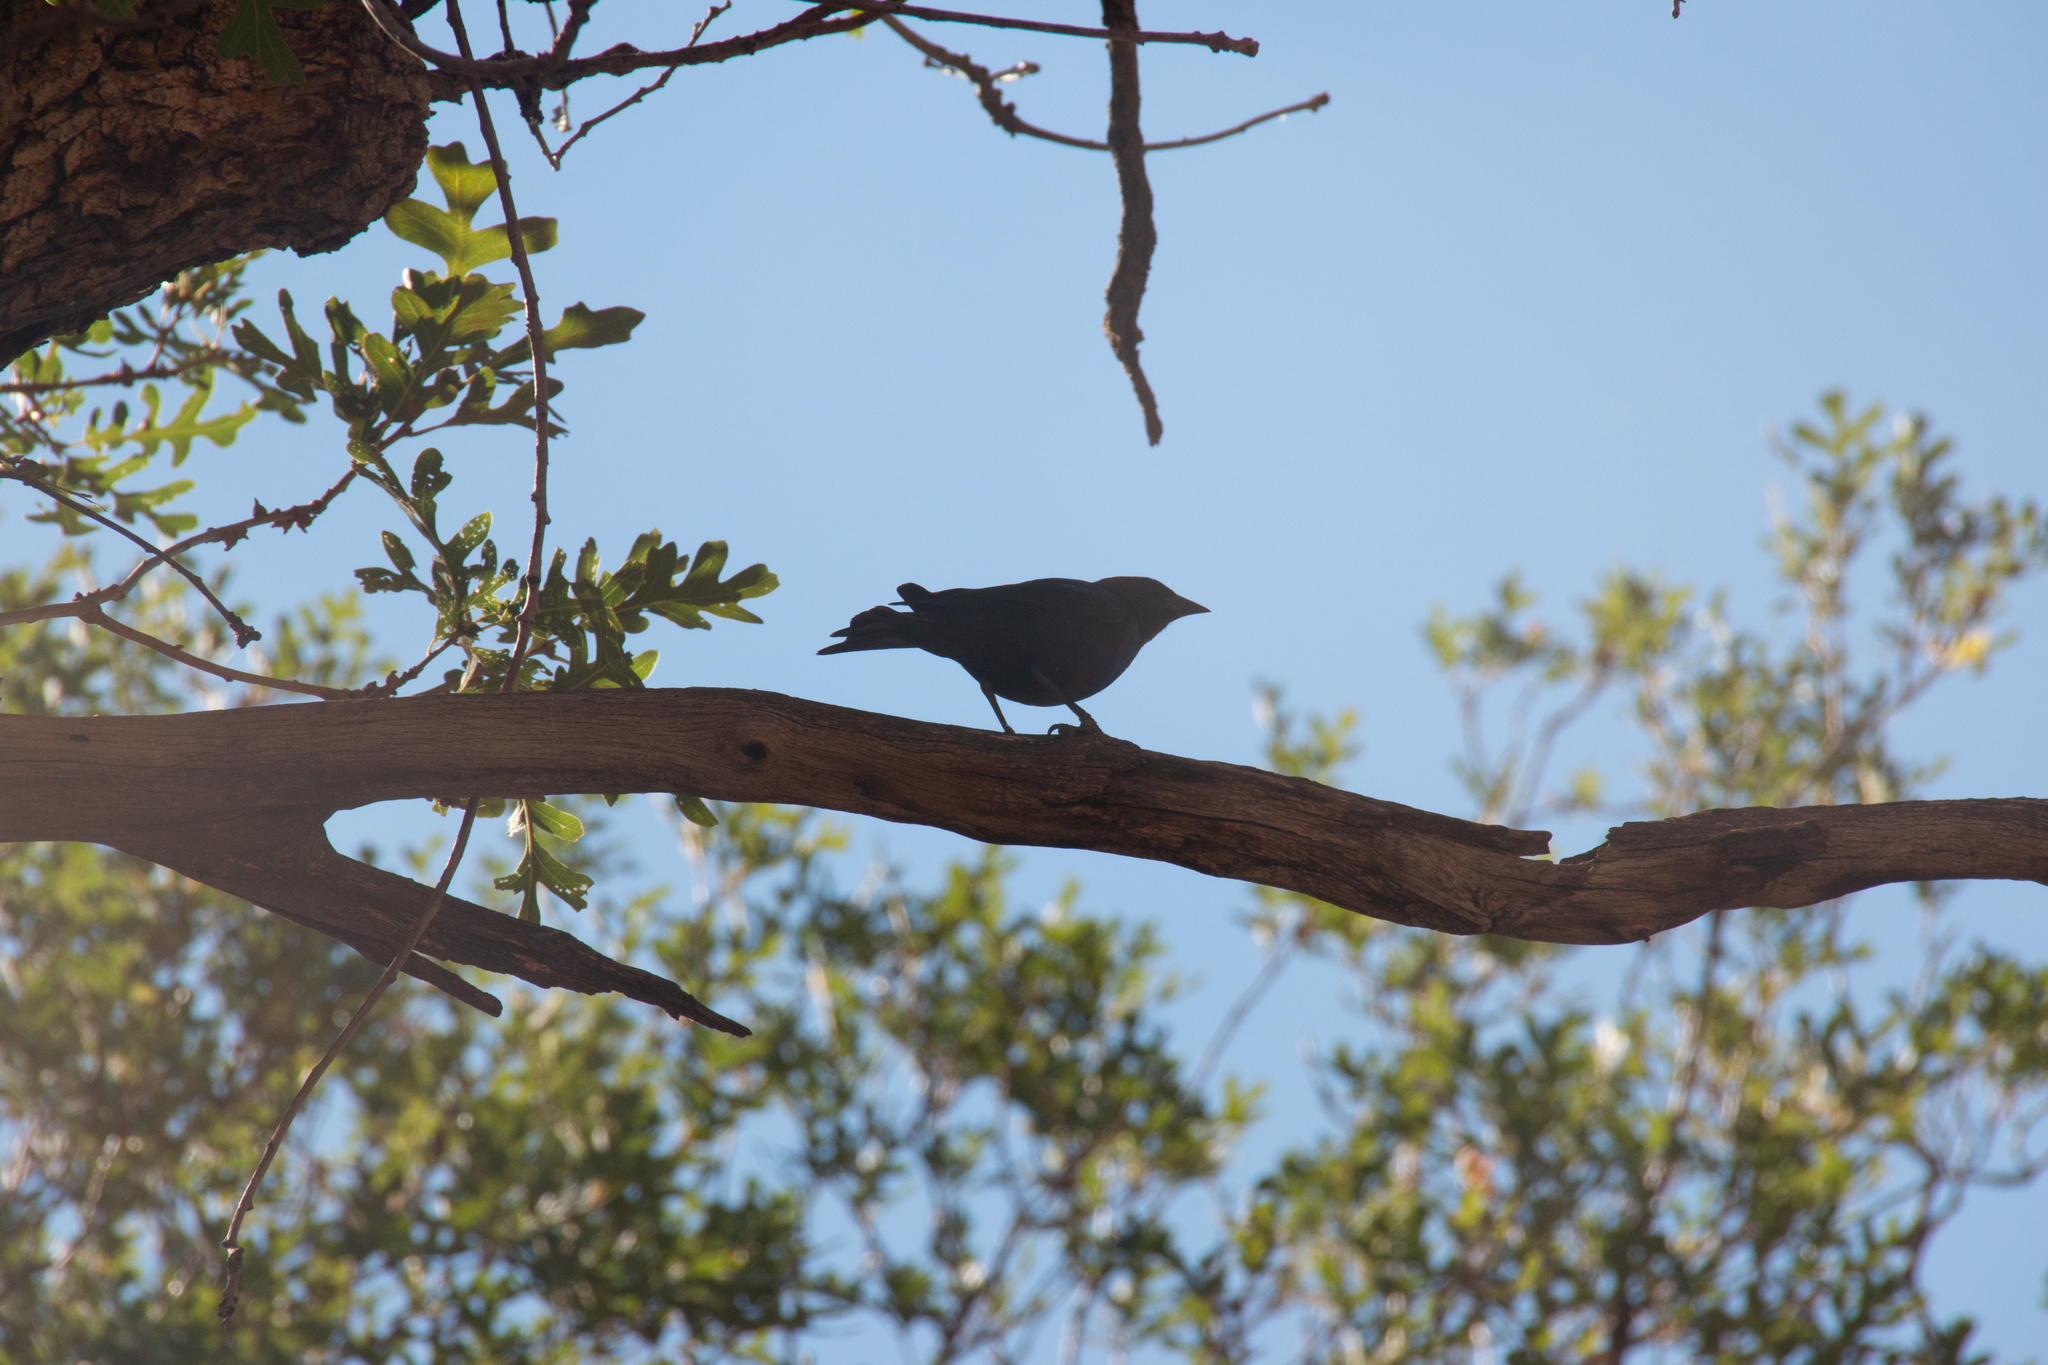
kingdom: Animalia
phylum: Chordata
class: Aves
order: Passeriformes
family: Icteridae
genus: Molothrus
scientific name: Molothrus ater
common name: Brown-headed cowbird
